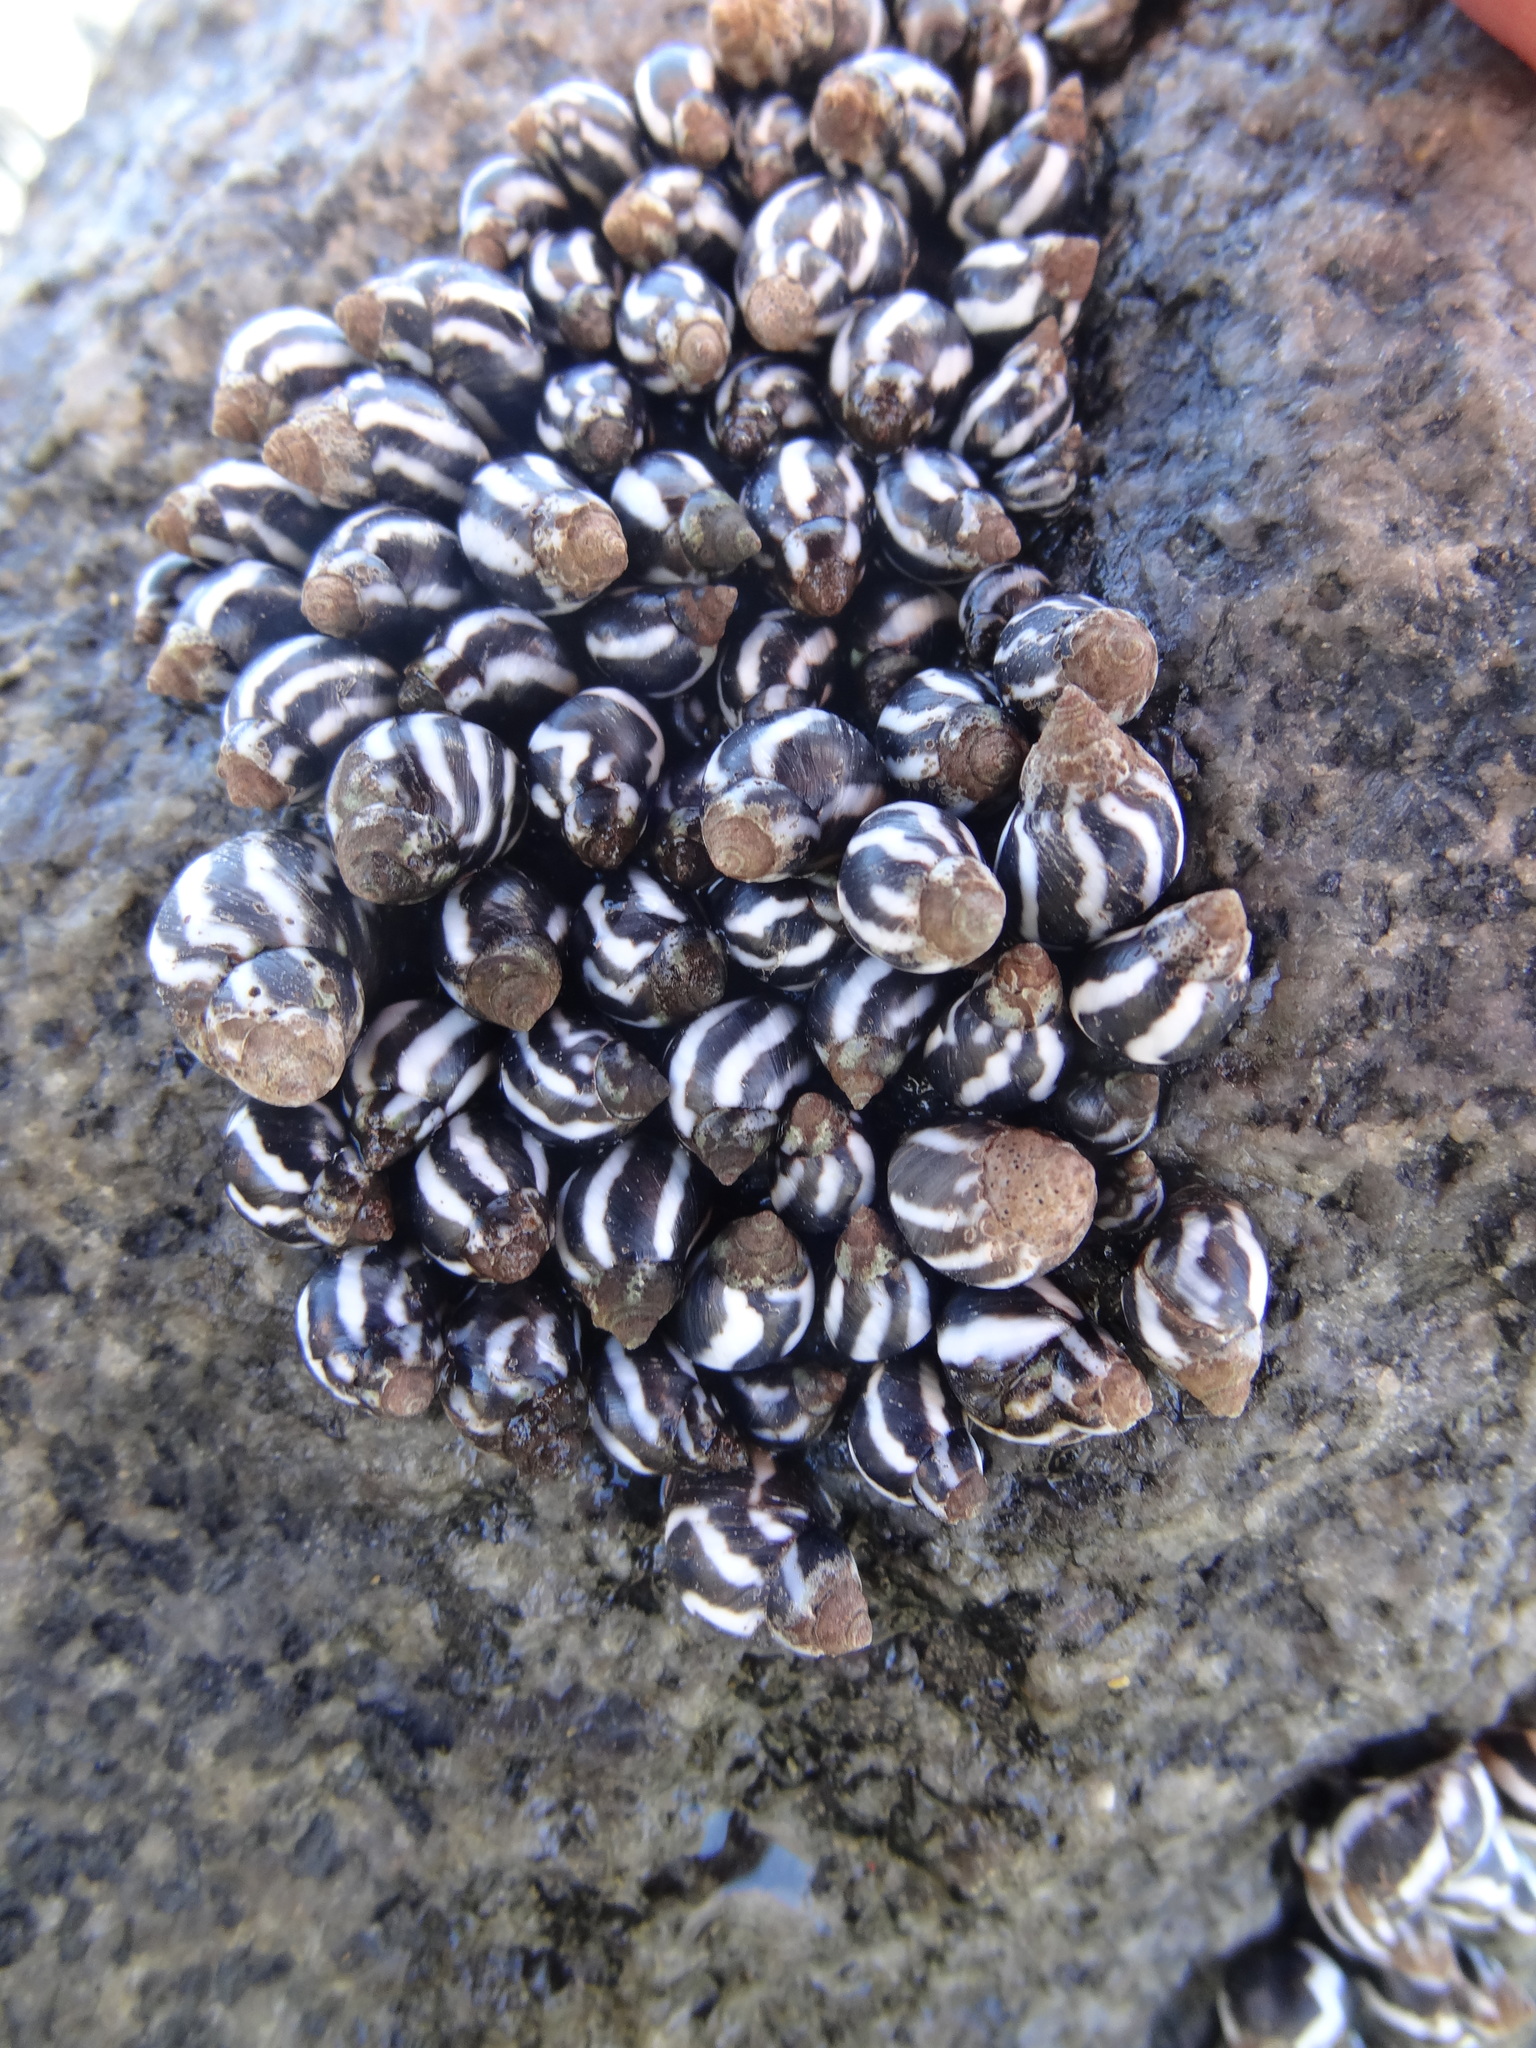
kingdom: Animalia
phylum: Mollusca
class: Gastropoda
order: Littorinimorpha
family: Littorinidae
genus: Echinolittorina
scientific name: Echinolittorina peruviana
